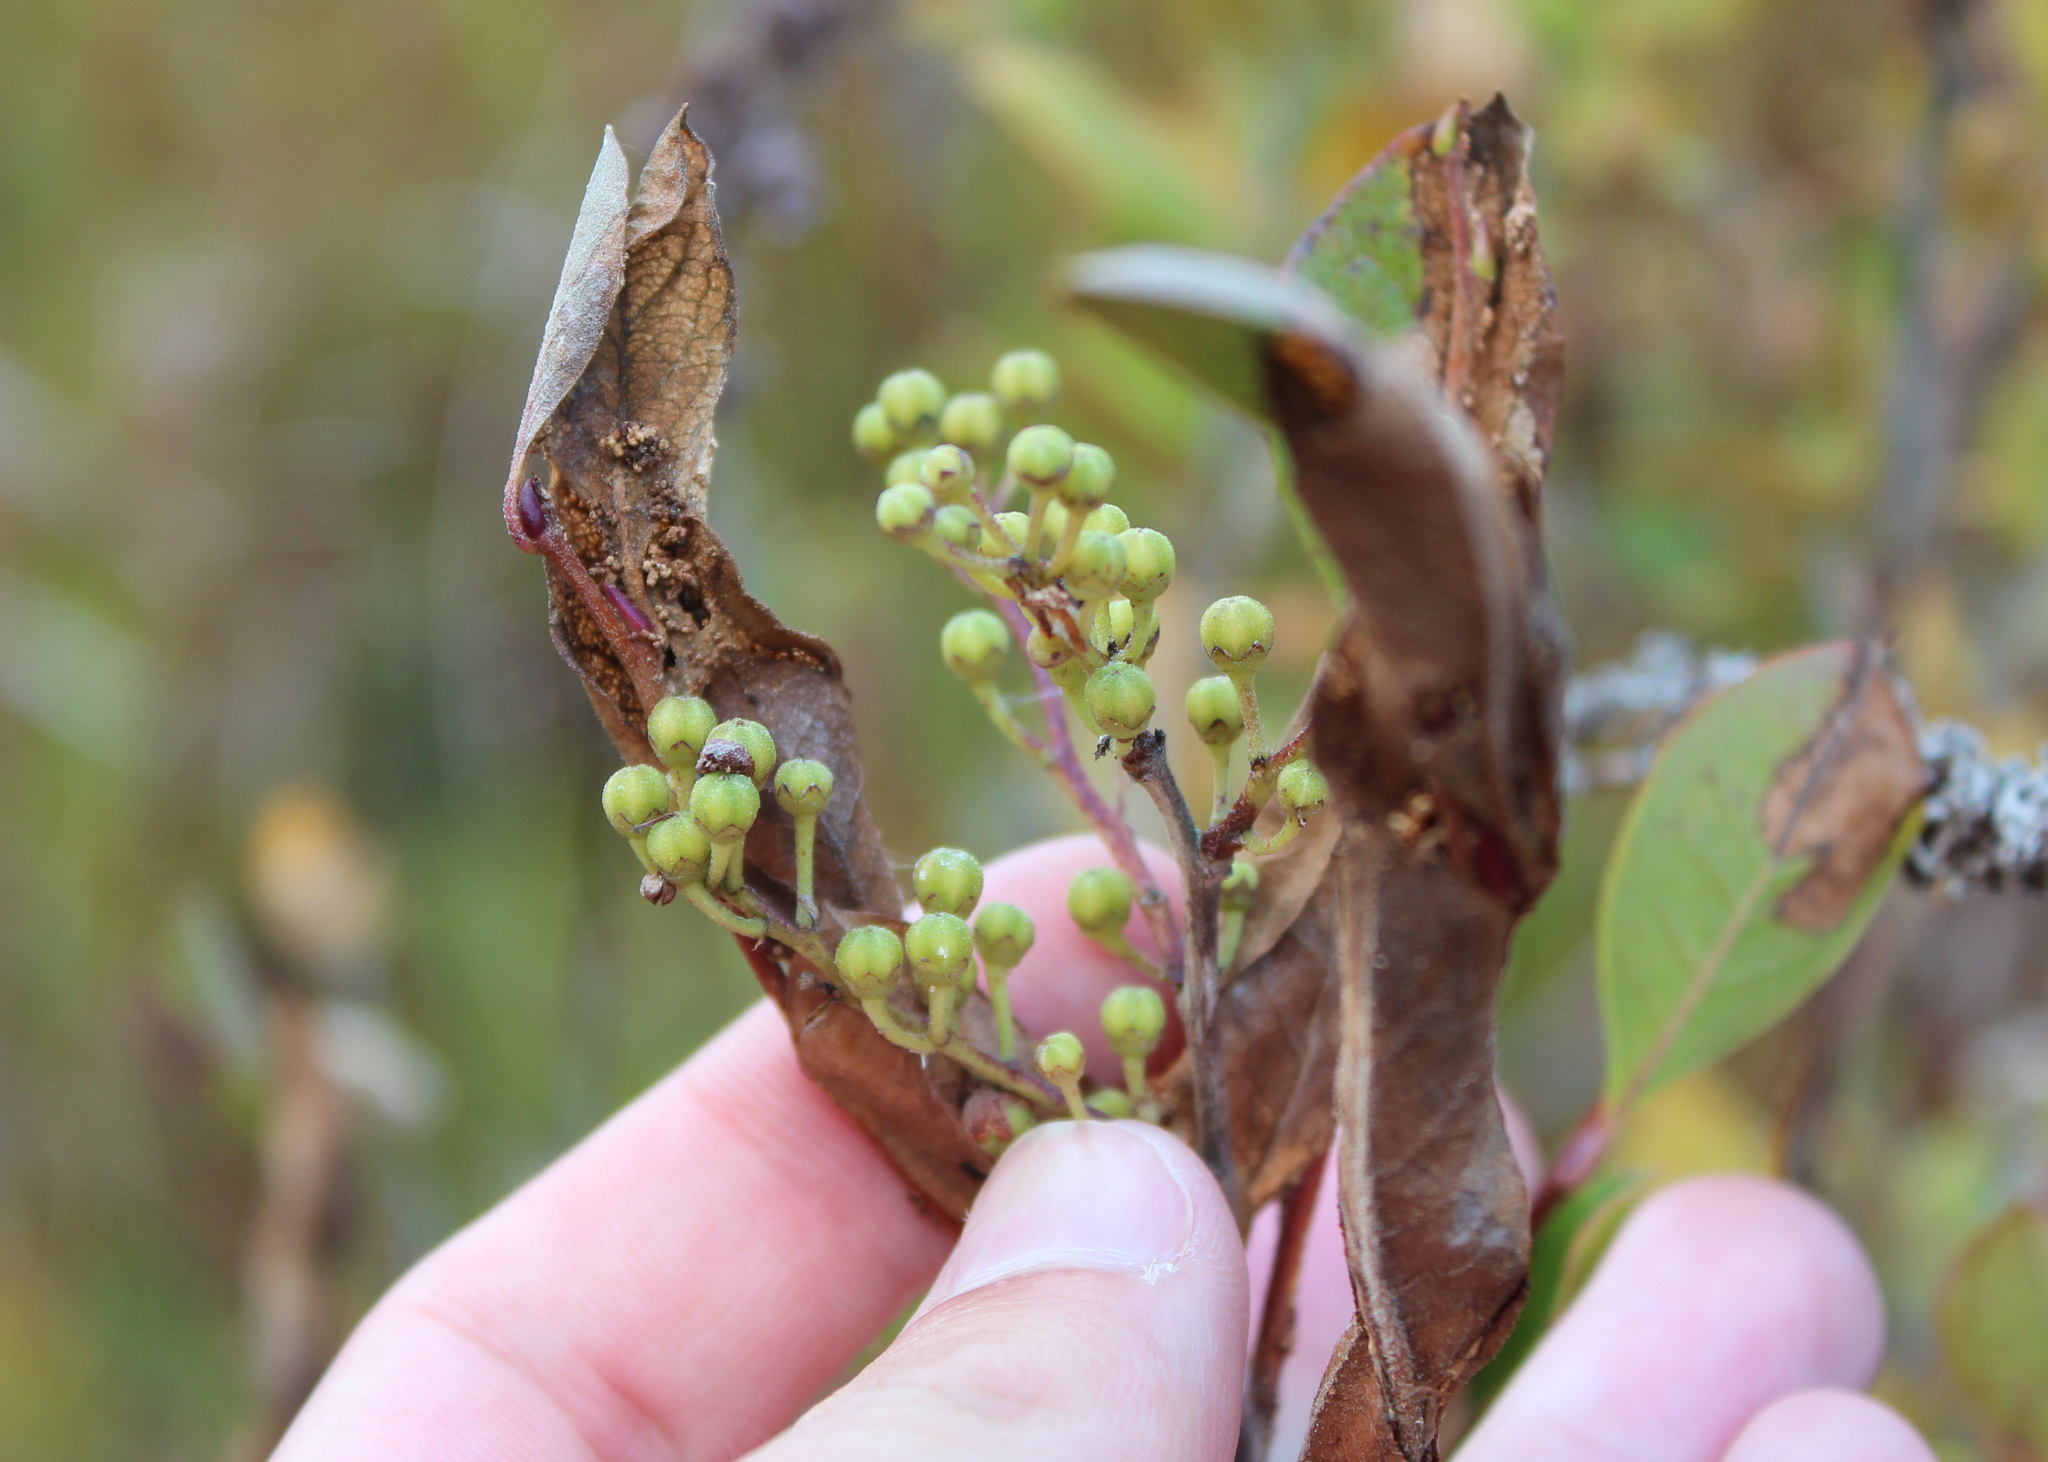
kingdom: Plantae
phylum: Tracheophyta
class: Magnoliopsida
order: Ericales
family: Ericaceae
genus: Lyonia
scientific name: Lyonia ligustrina
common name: Maleberry
